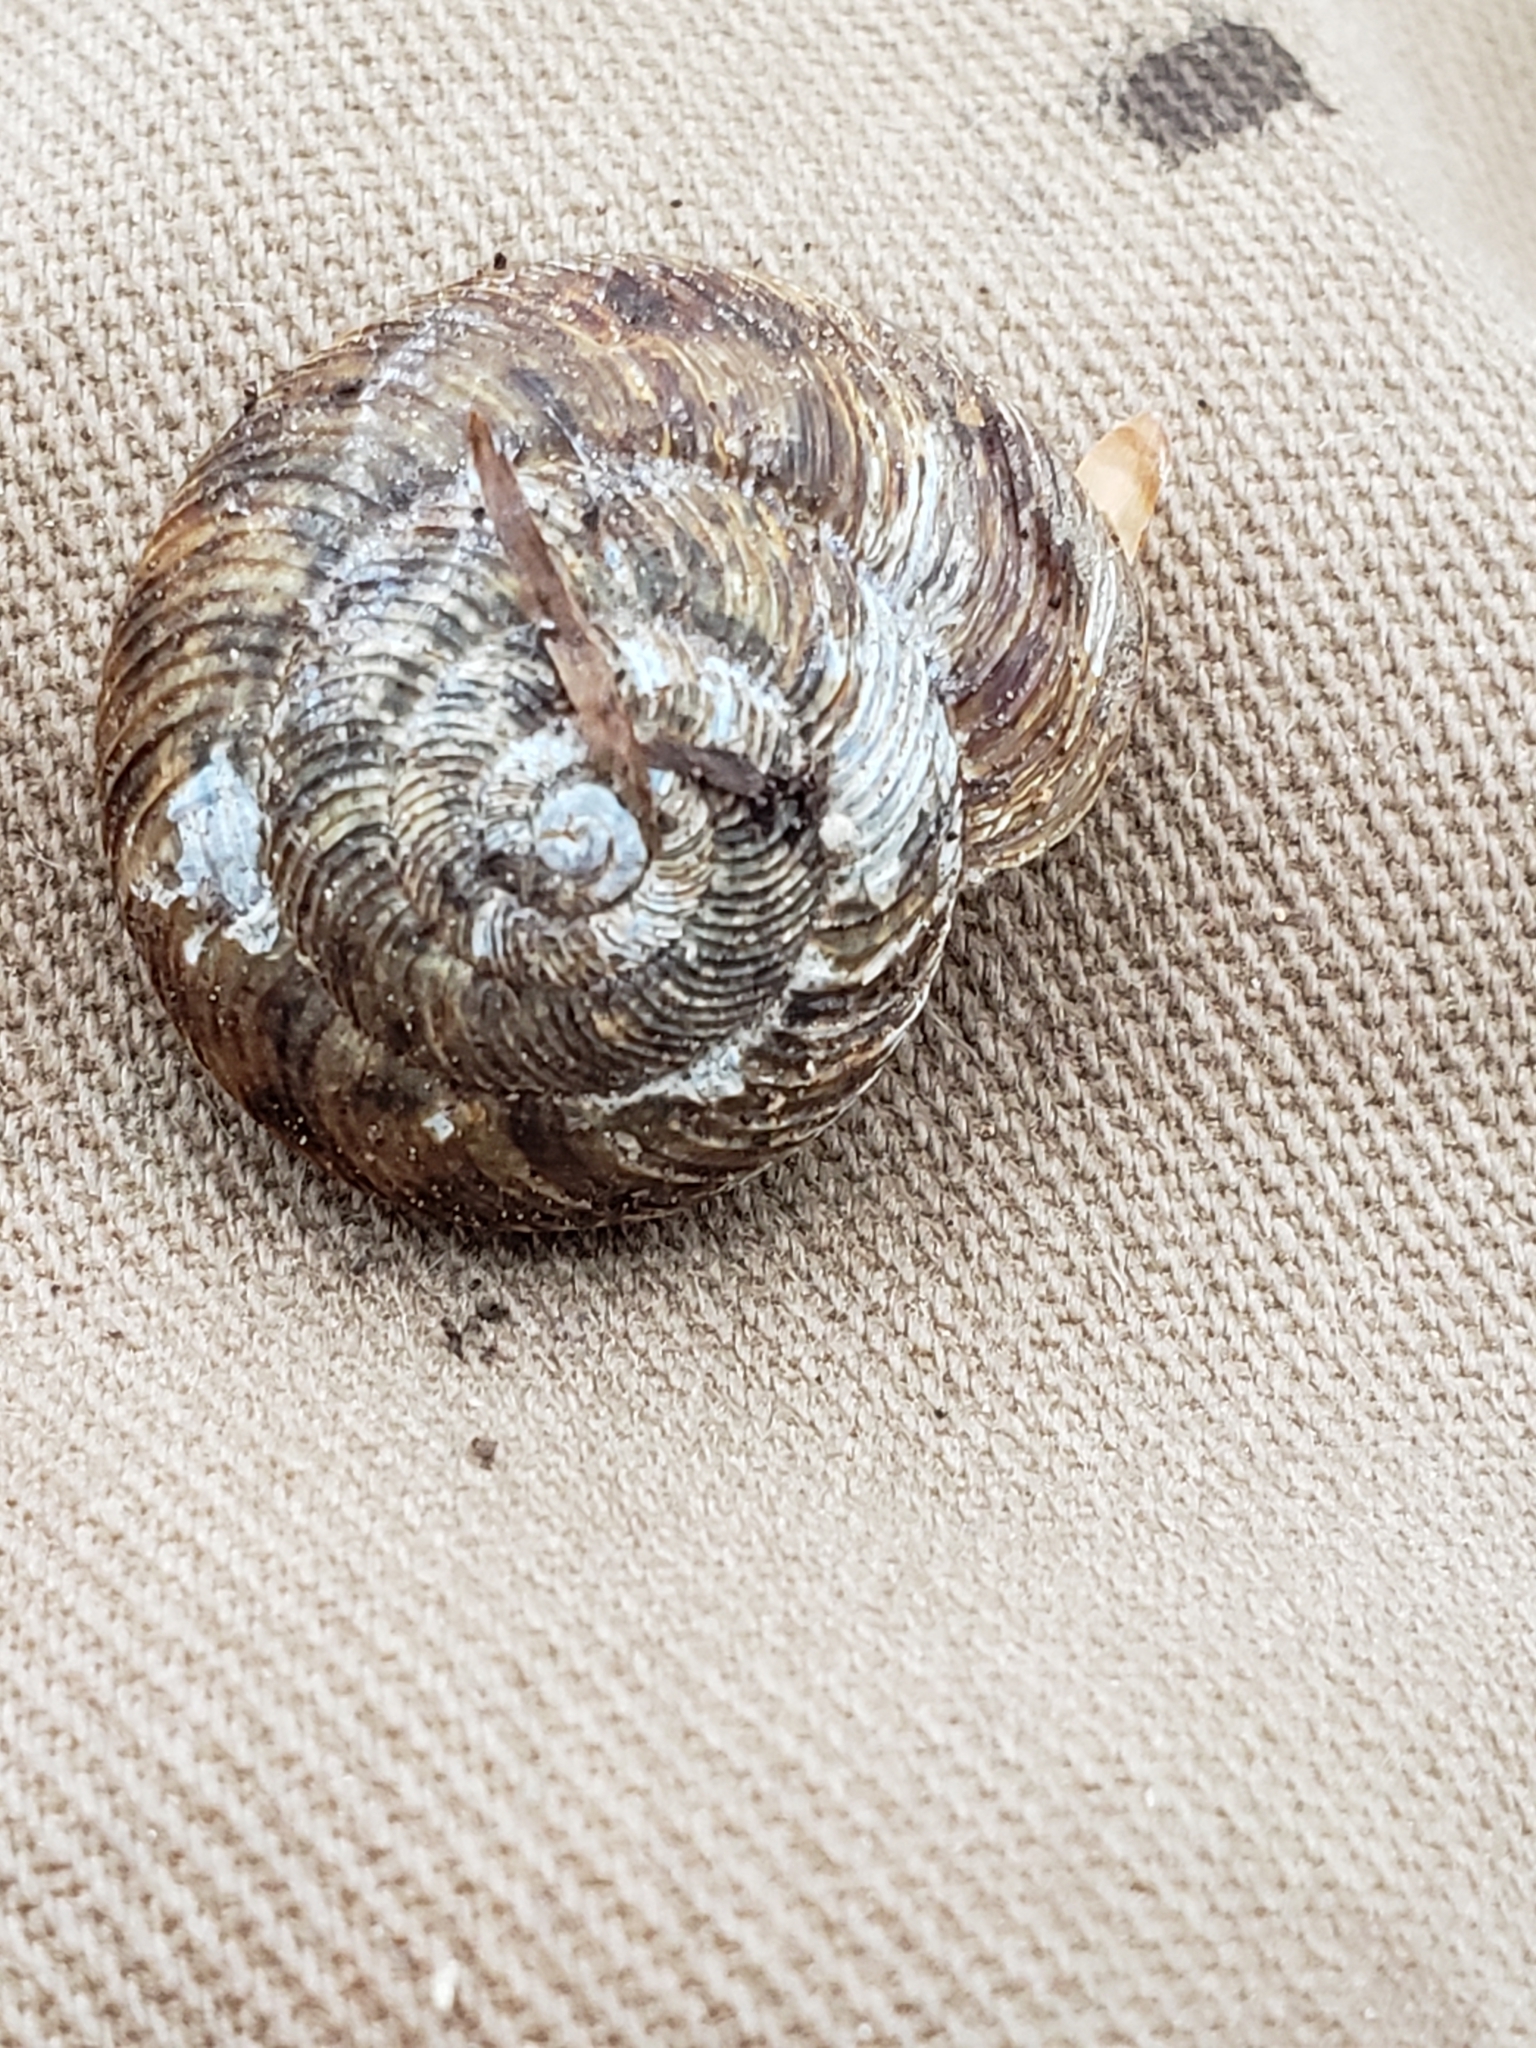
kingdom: Animalia
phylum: Mollusca
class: Gastropoda
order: Stylommatophora
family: Discidae
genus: Anguispira
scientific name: Anguispira alternata
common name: Flamed tigersnail
